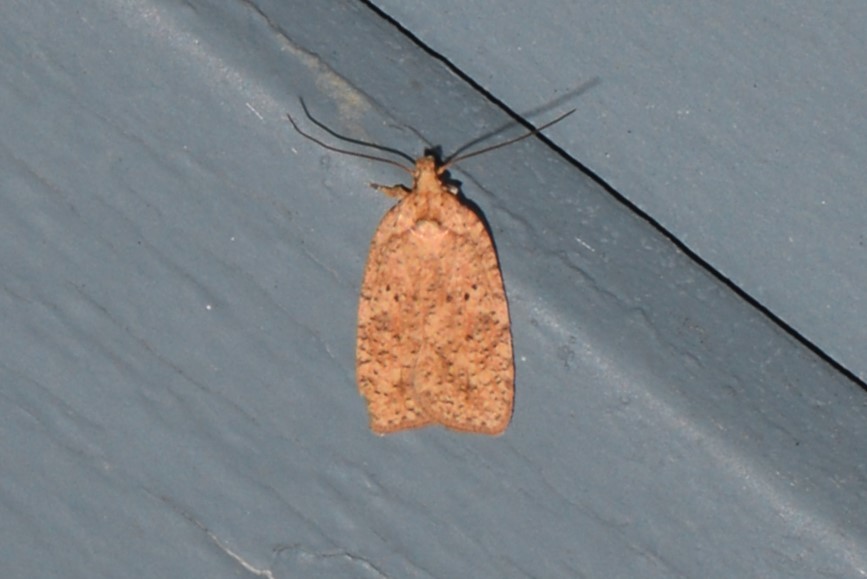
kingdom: Animalia
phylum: Arthropoda
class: Insecta
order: Lepidoptera
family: Depressariidae
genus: Agonopterix
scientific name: Agonopterix thelmae
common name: Thelma's agonopterix moth
